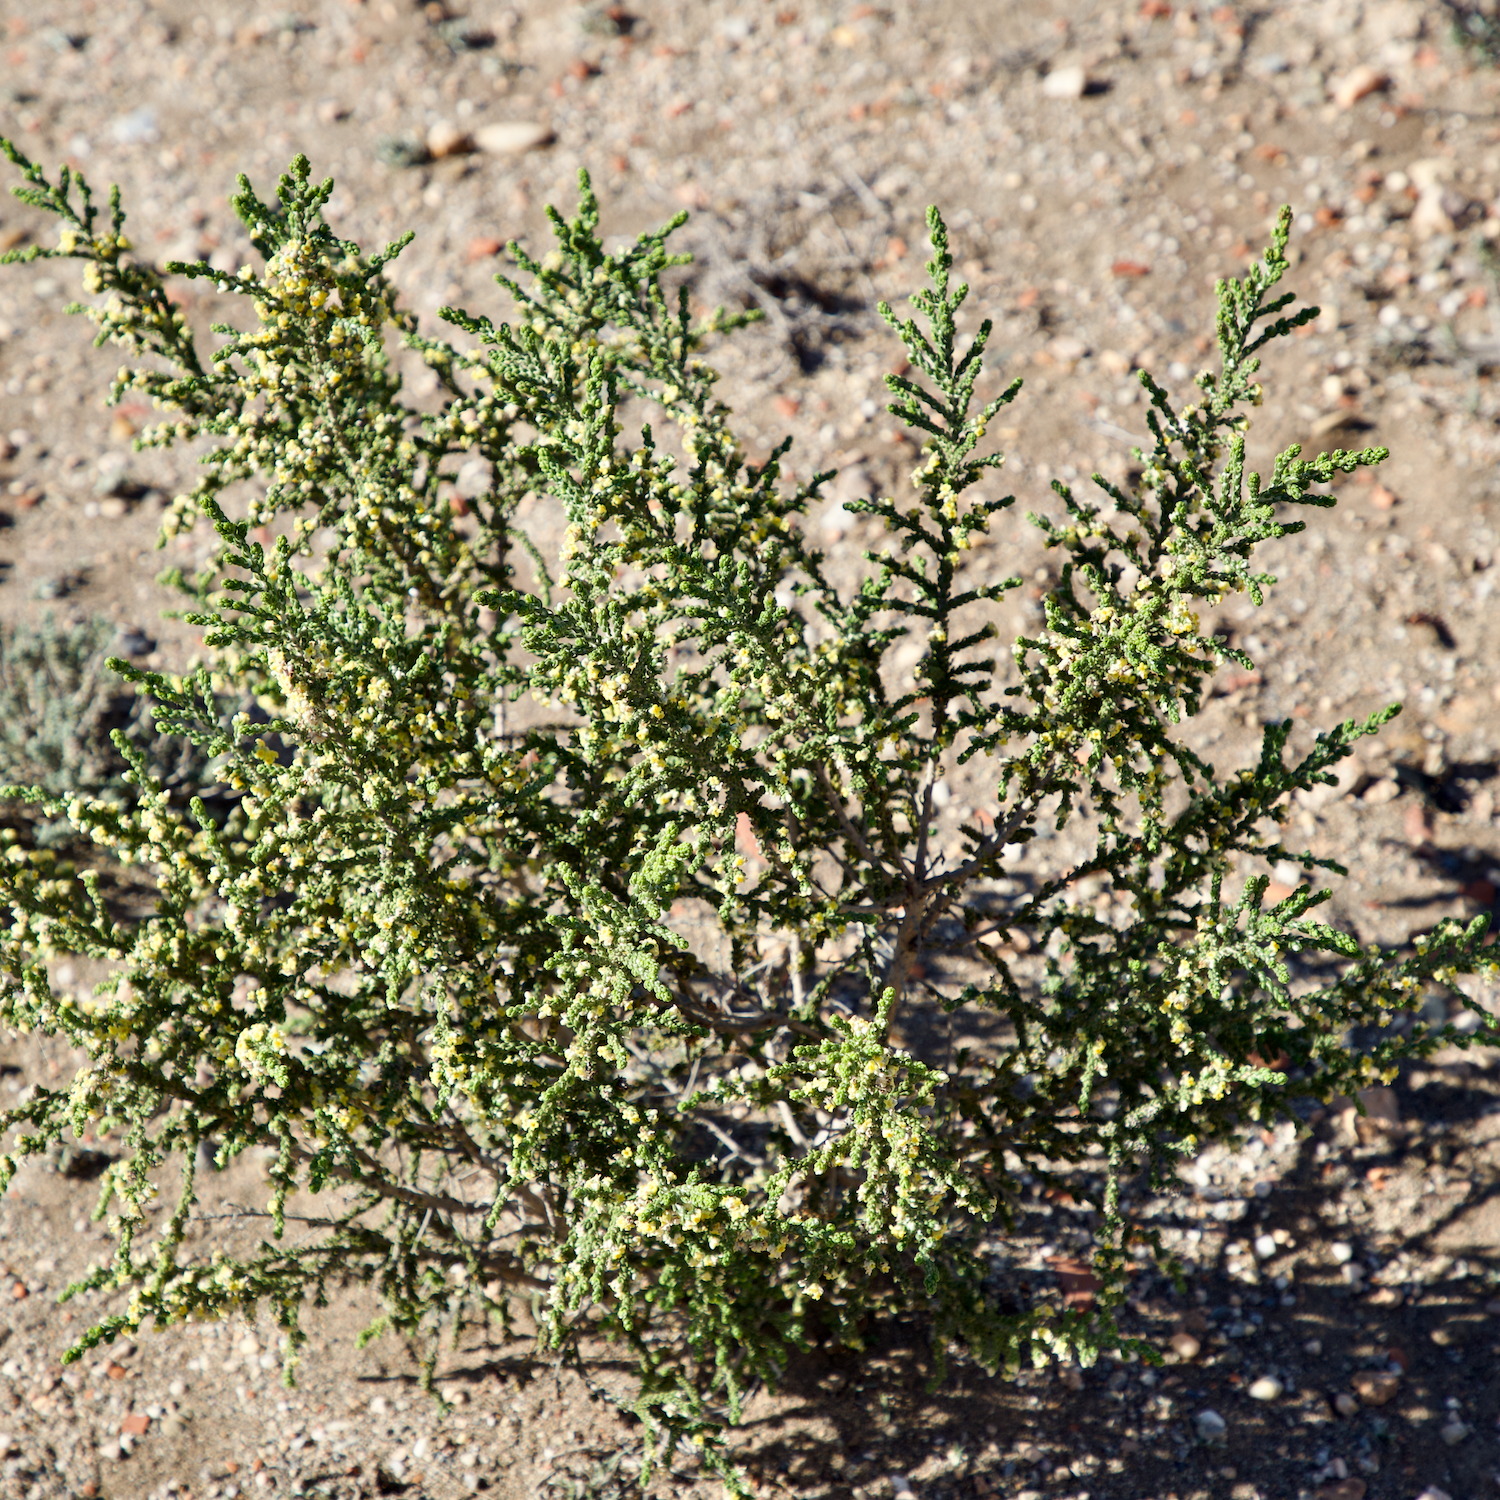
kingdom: Plantae
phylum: Tracheophyta
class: Magnoliopsida
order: Malvales
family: Thymelaeaceae
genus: Thymelaea
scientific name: Thymelaea hirsuta
